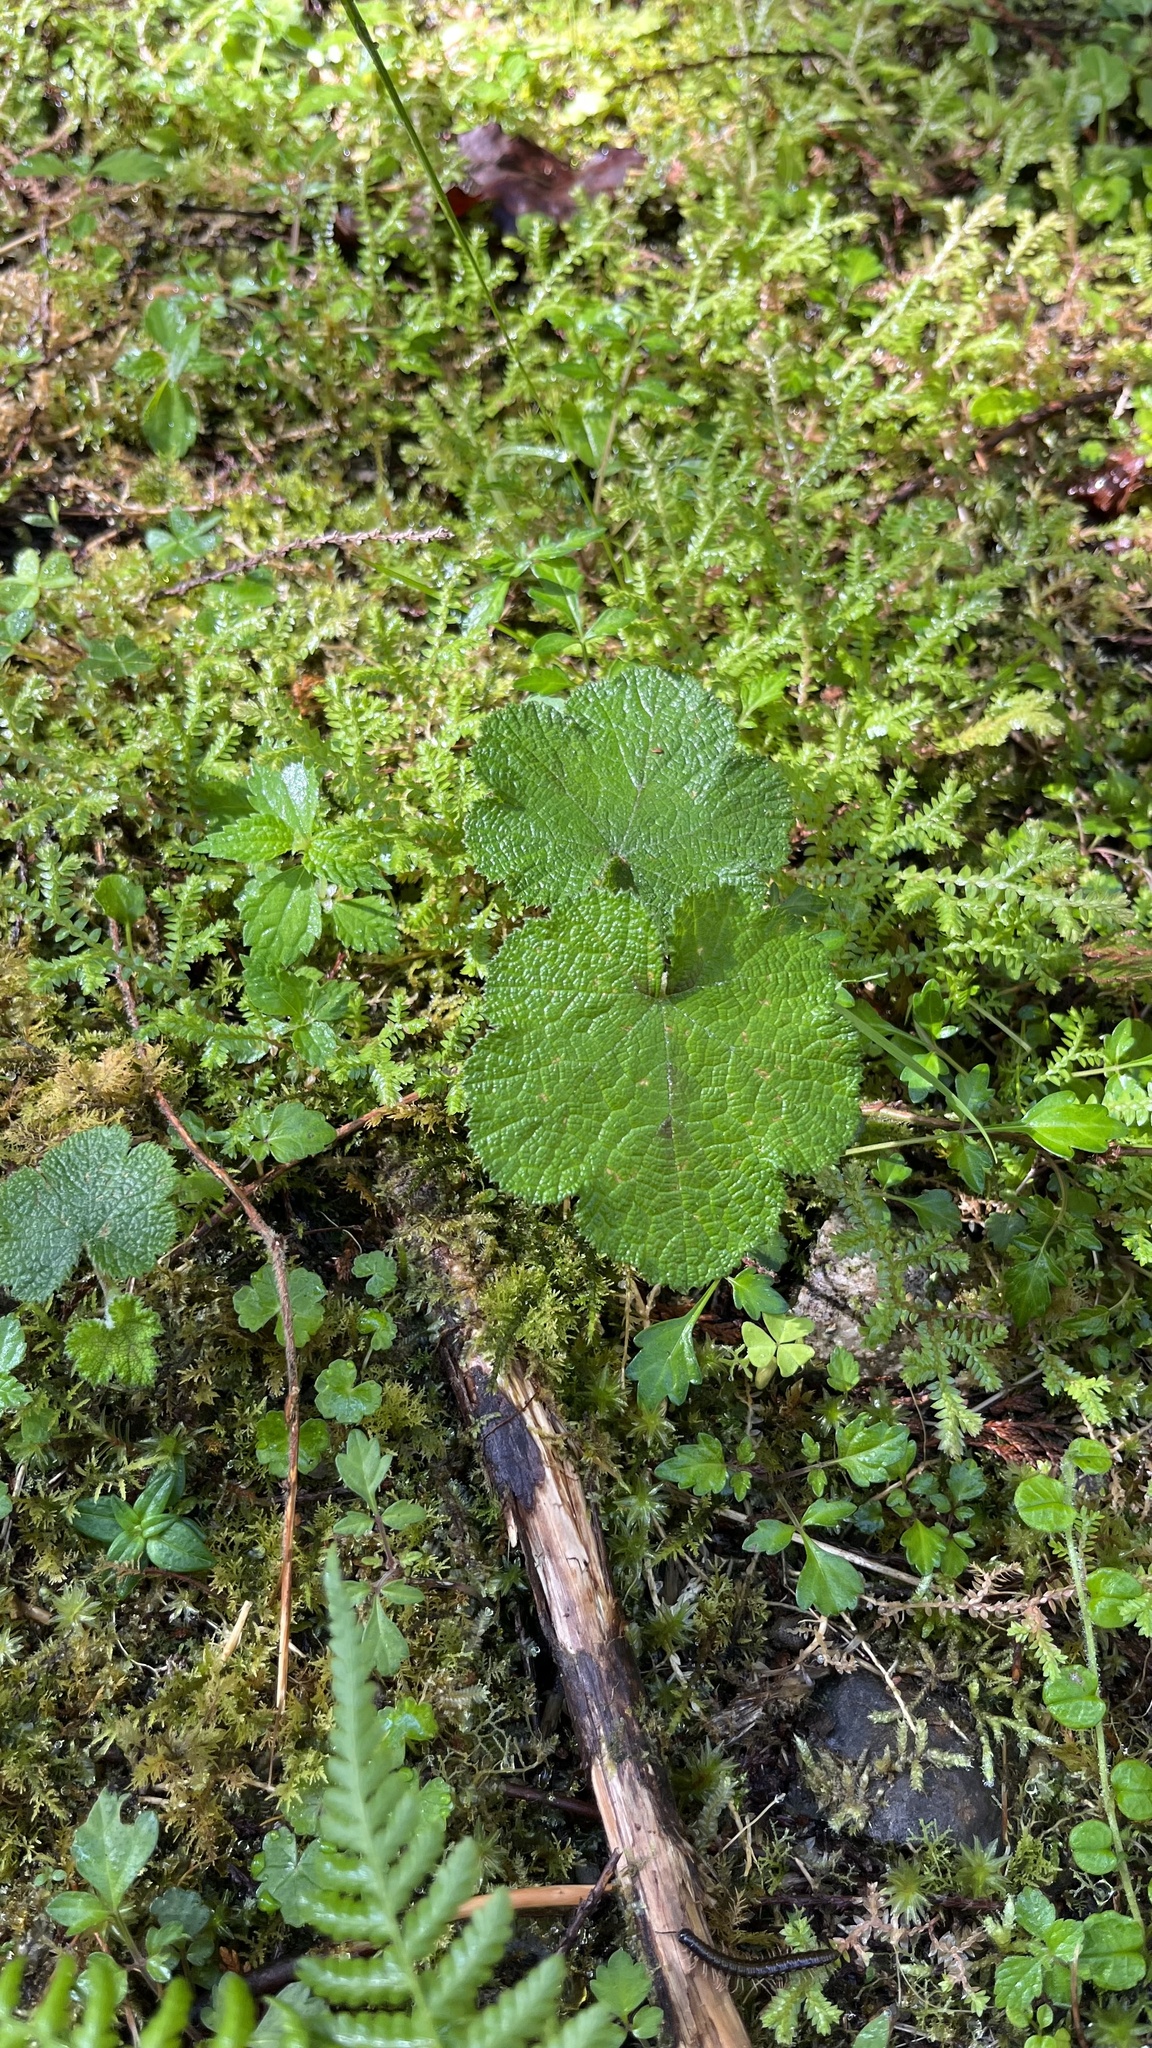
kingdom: Plantae
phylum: Tracheophyta
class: Magnoliopsida
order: Rosales
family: Rosaceae
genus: Rubus
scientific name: Rubus pectinellus
